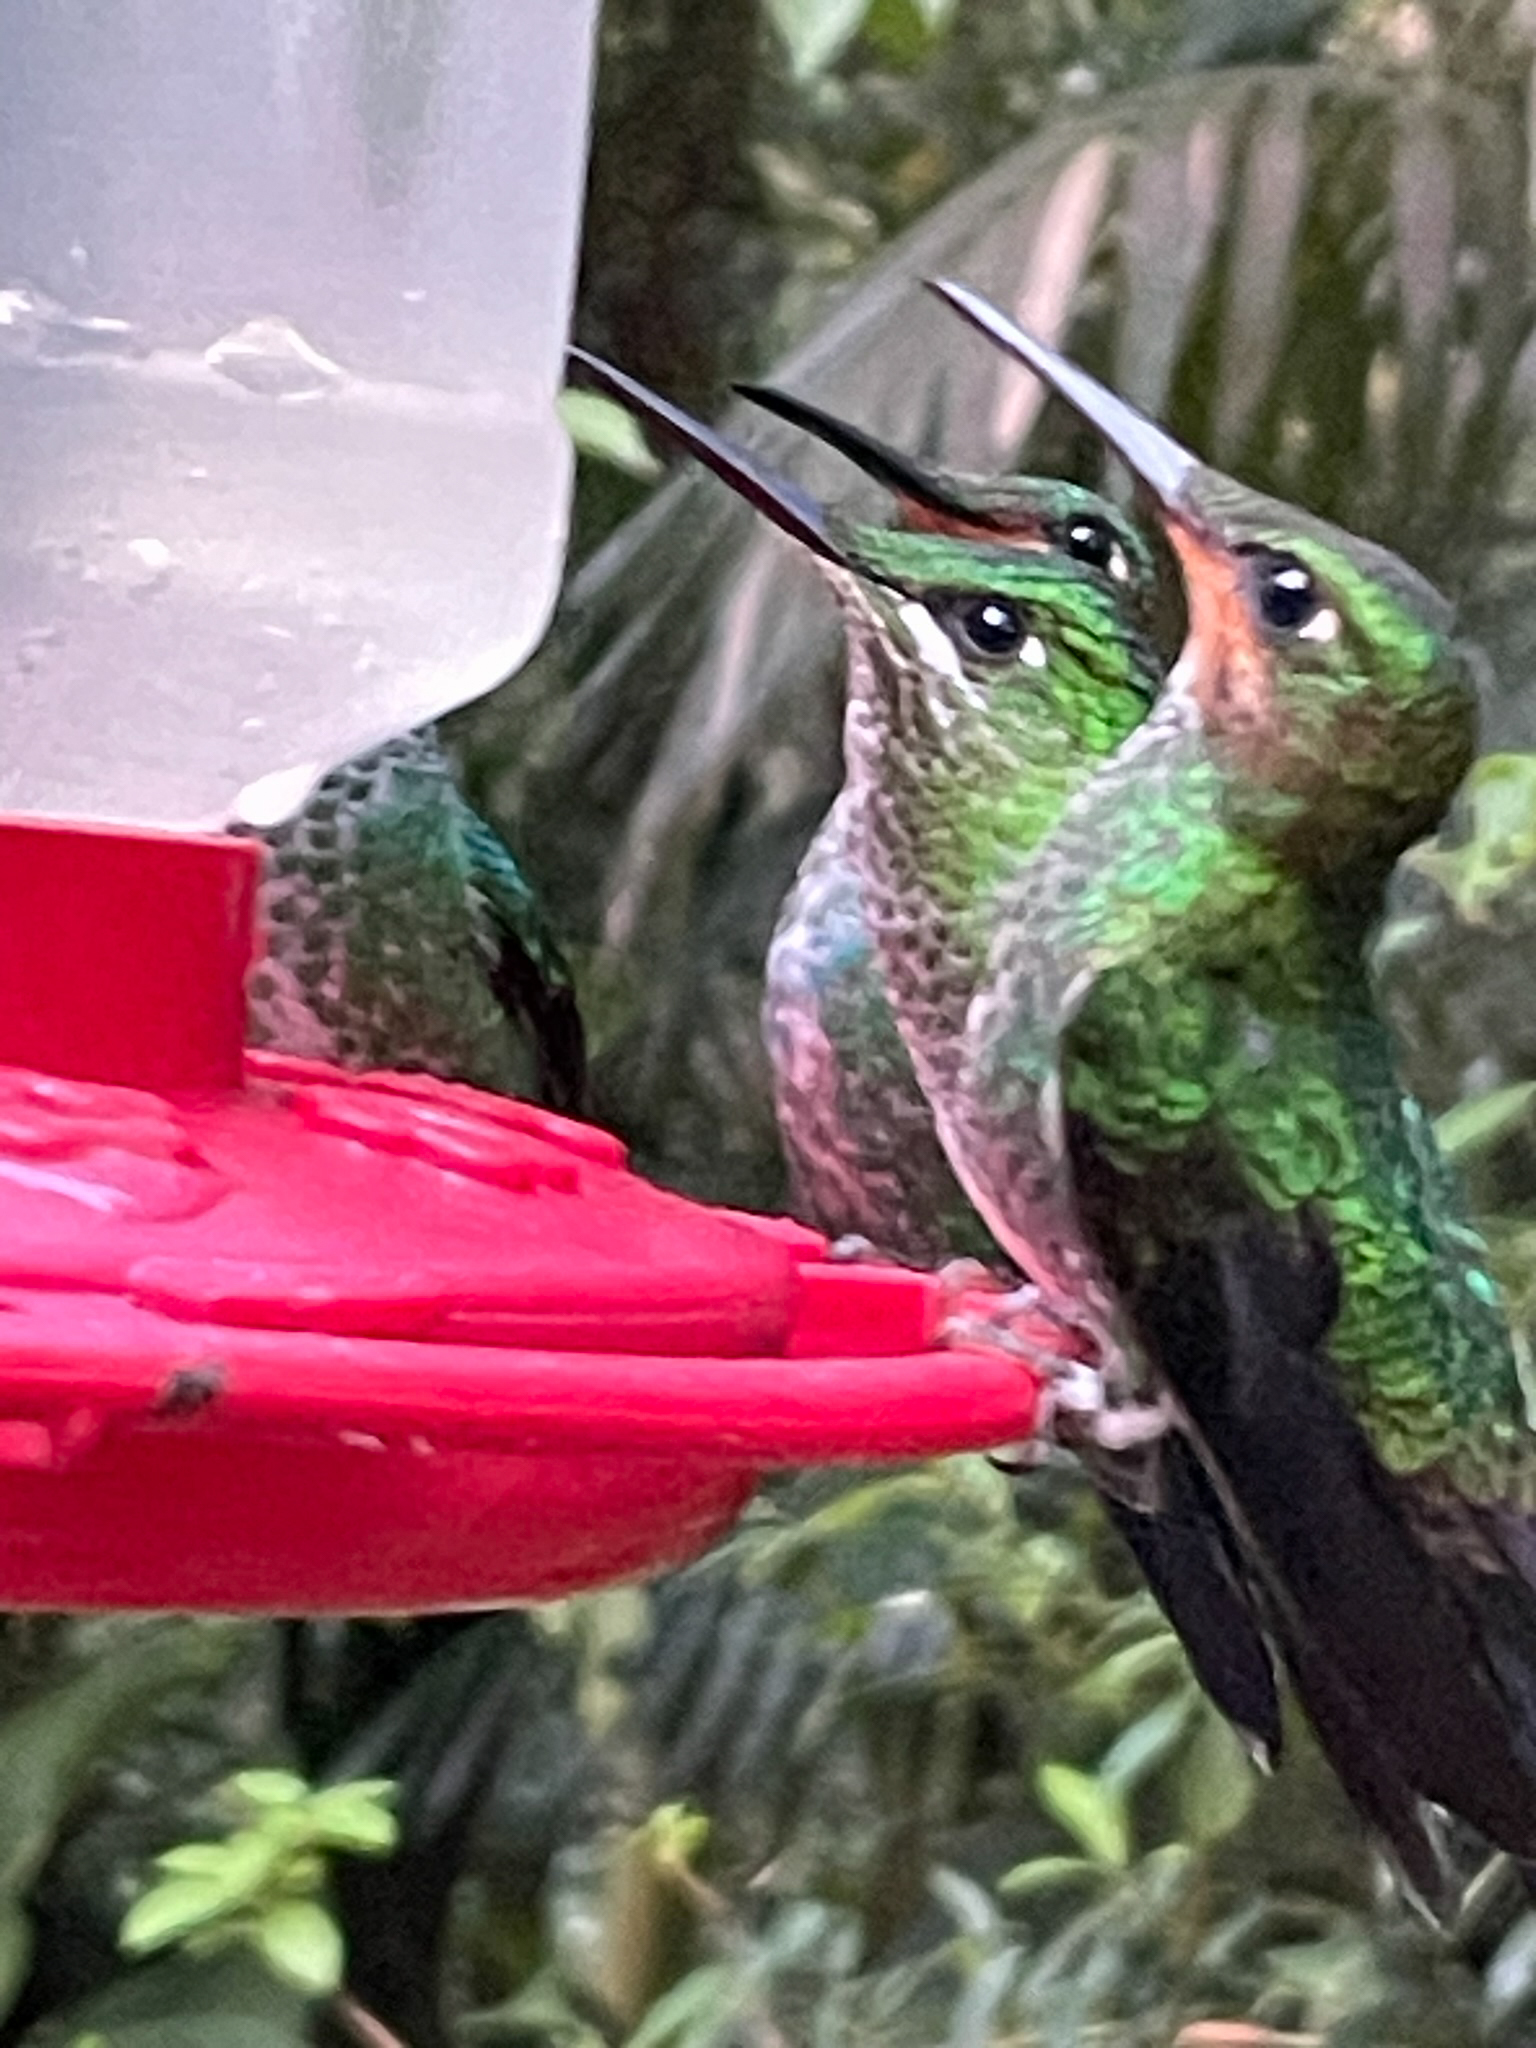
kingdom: Animalia
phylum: Chordata
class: Aves
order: Apodiformes
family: Trochilidae
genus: Heliodoxa
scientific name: Heliodoxa jacula
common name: Green-crowned brilliant
